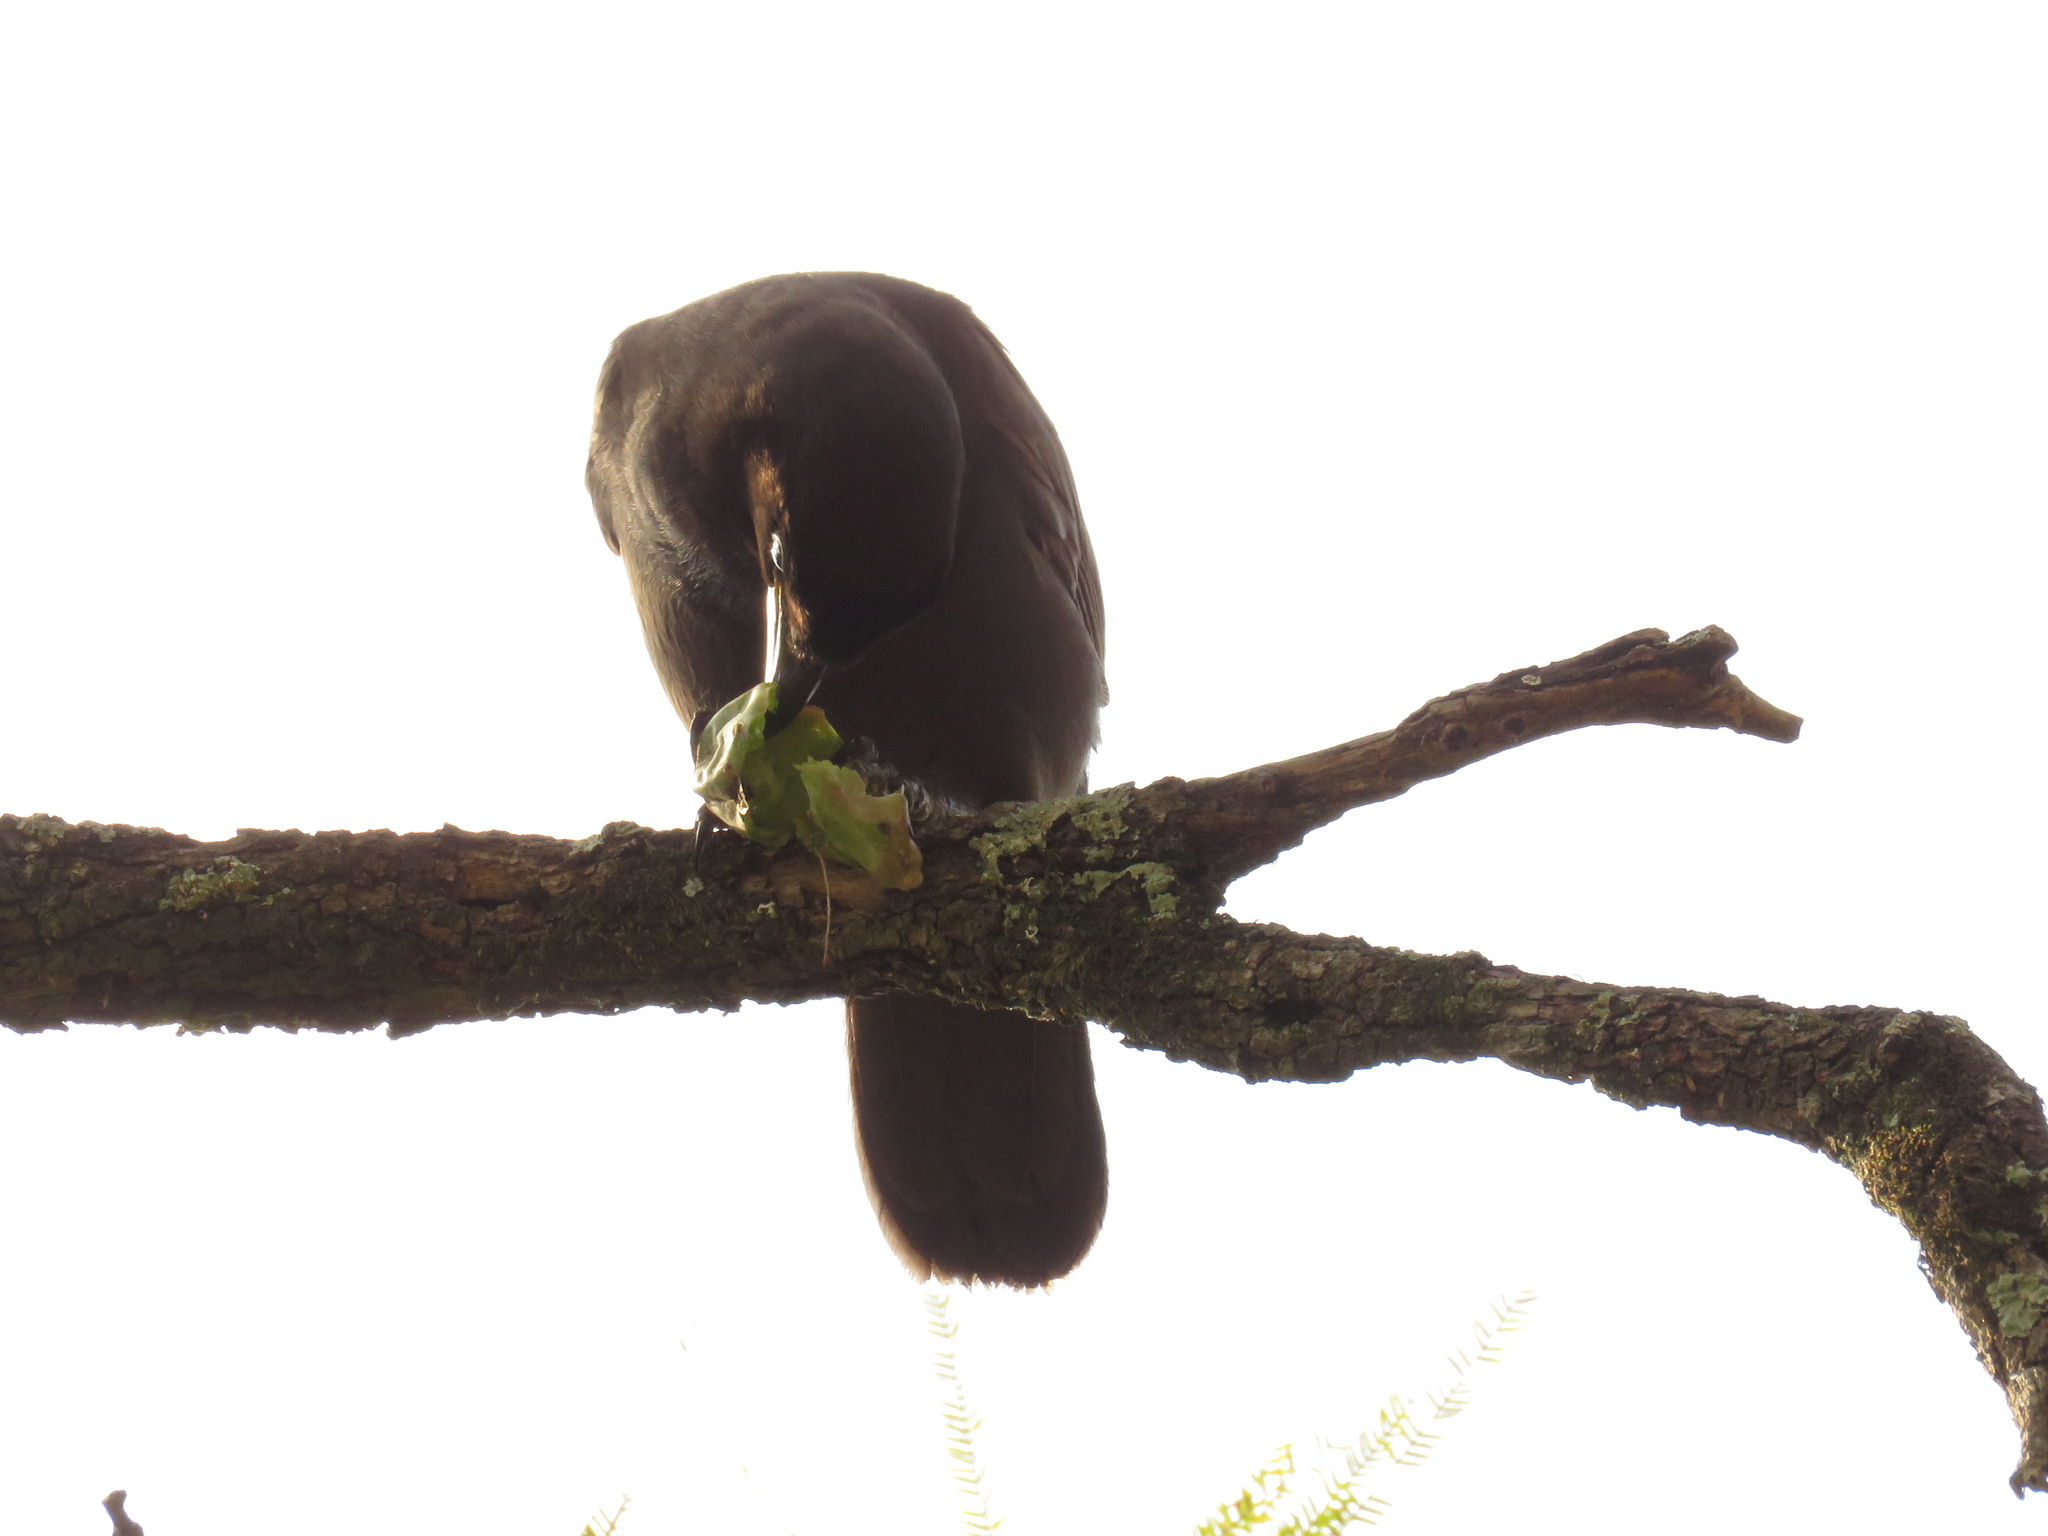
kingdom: Animalia
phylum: Chordata
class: Aves
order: Passeriformes
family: Corvidae
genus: Cyanocorax
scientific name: Cyanocorax cyanomelas
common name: Purplish jay
